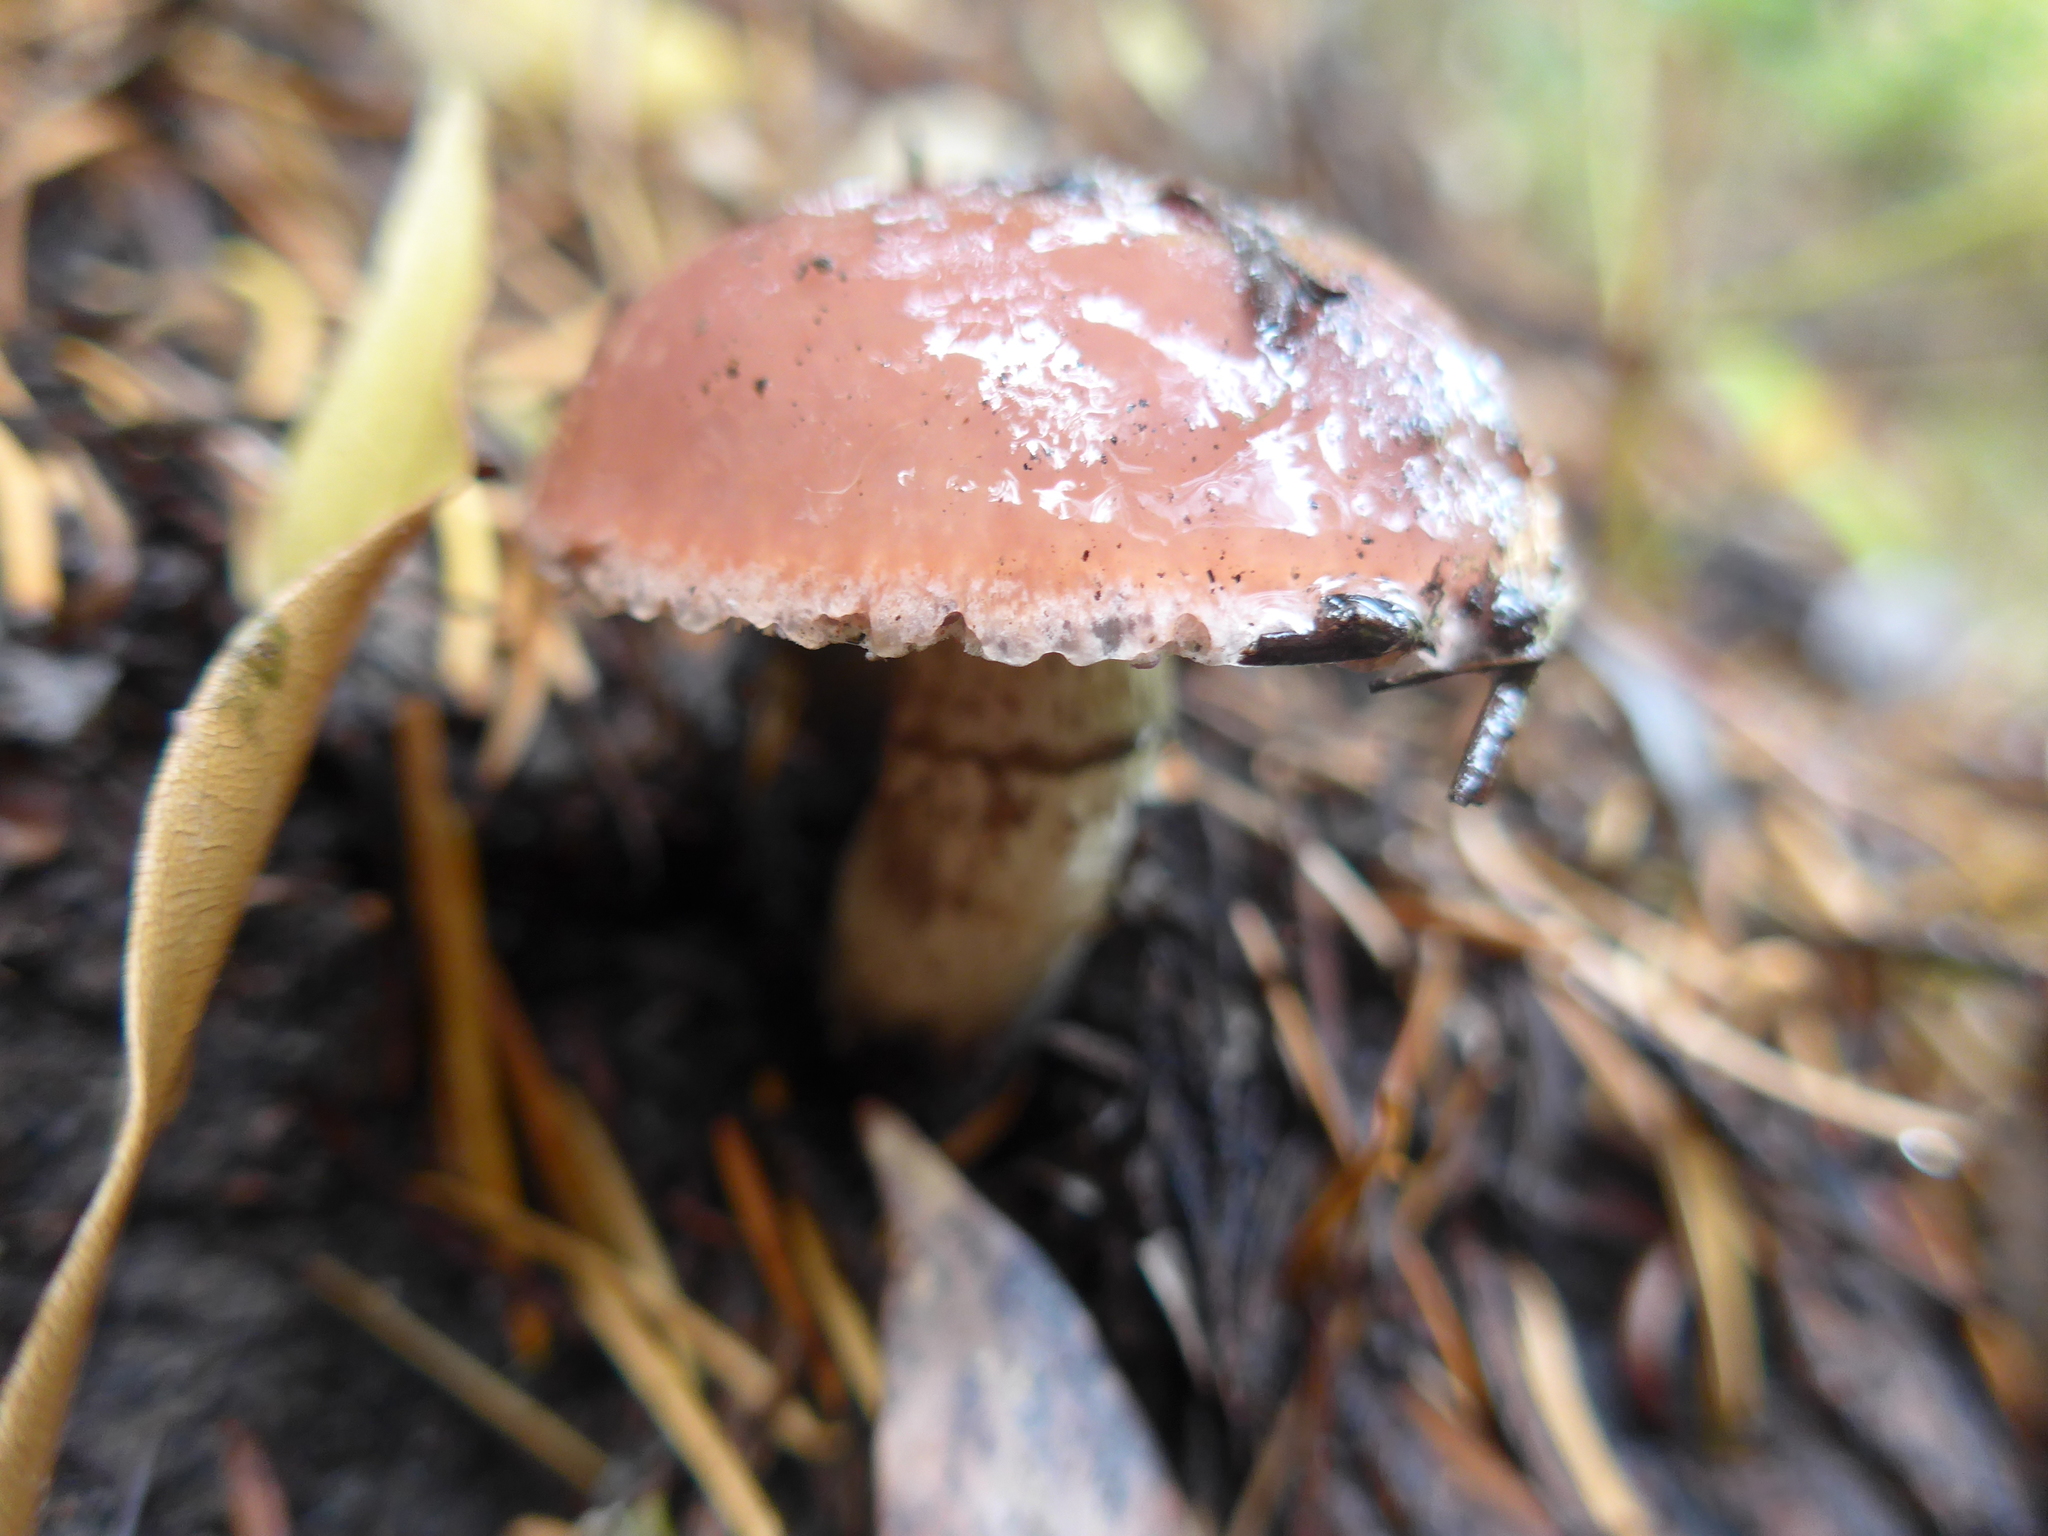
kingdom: Fungi
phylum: Basidiomycota
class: Agaricomycetes
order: Boletales
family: Gomphidiaceae
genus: Gomphidius
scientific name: Gomphidius subroseus
